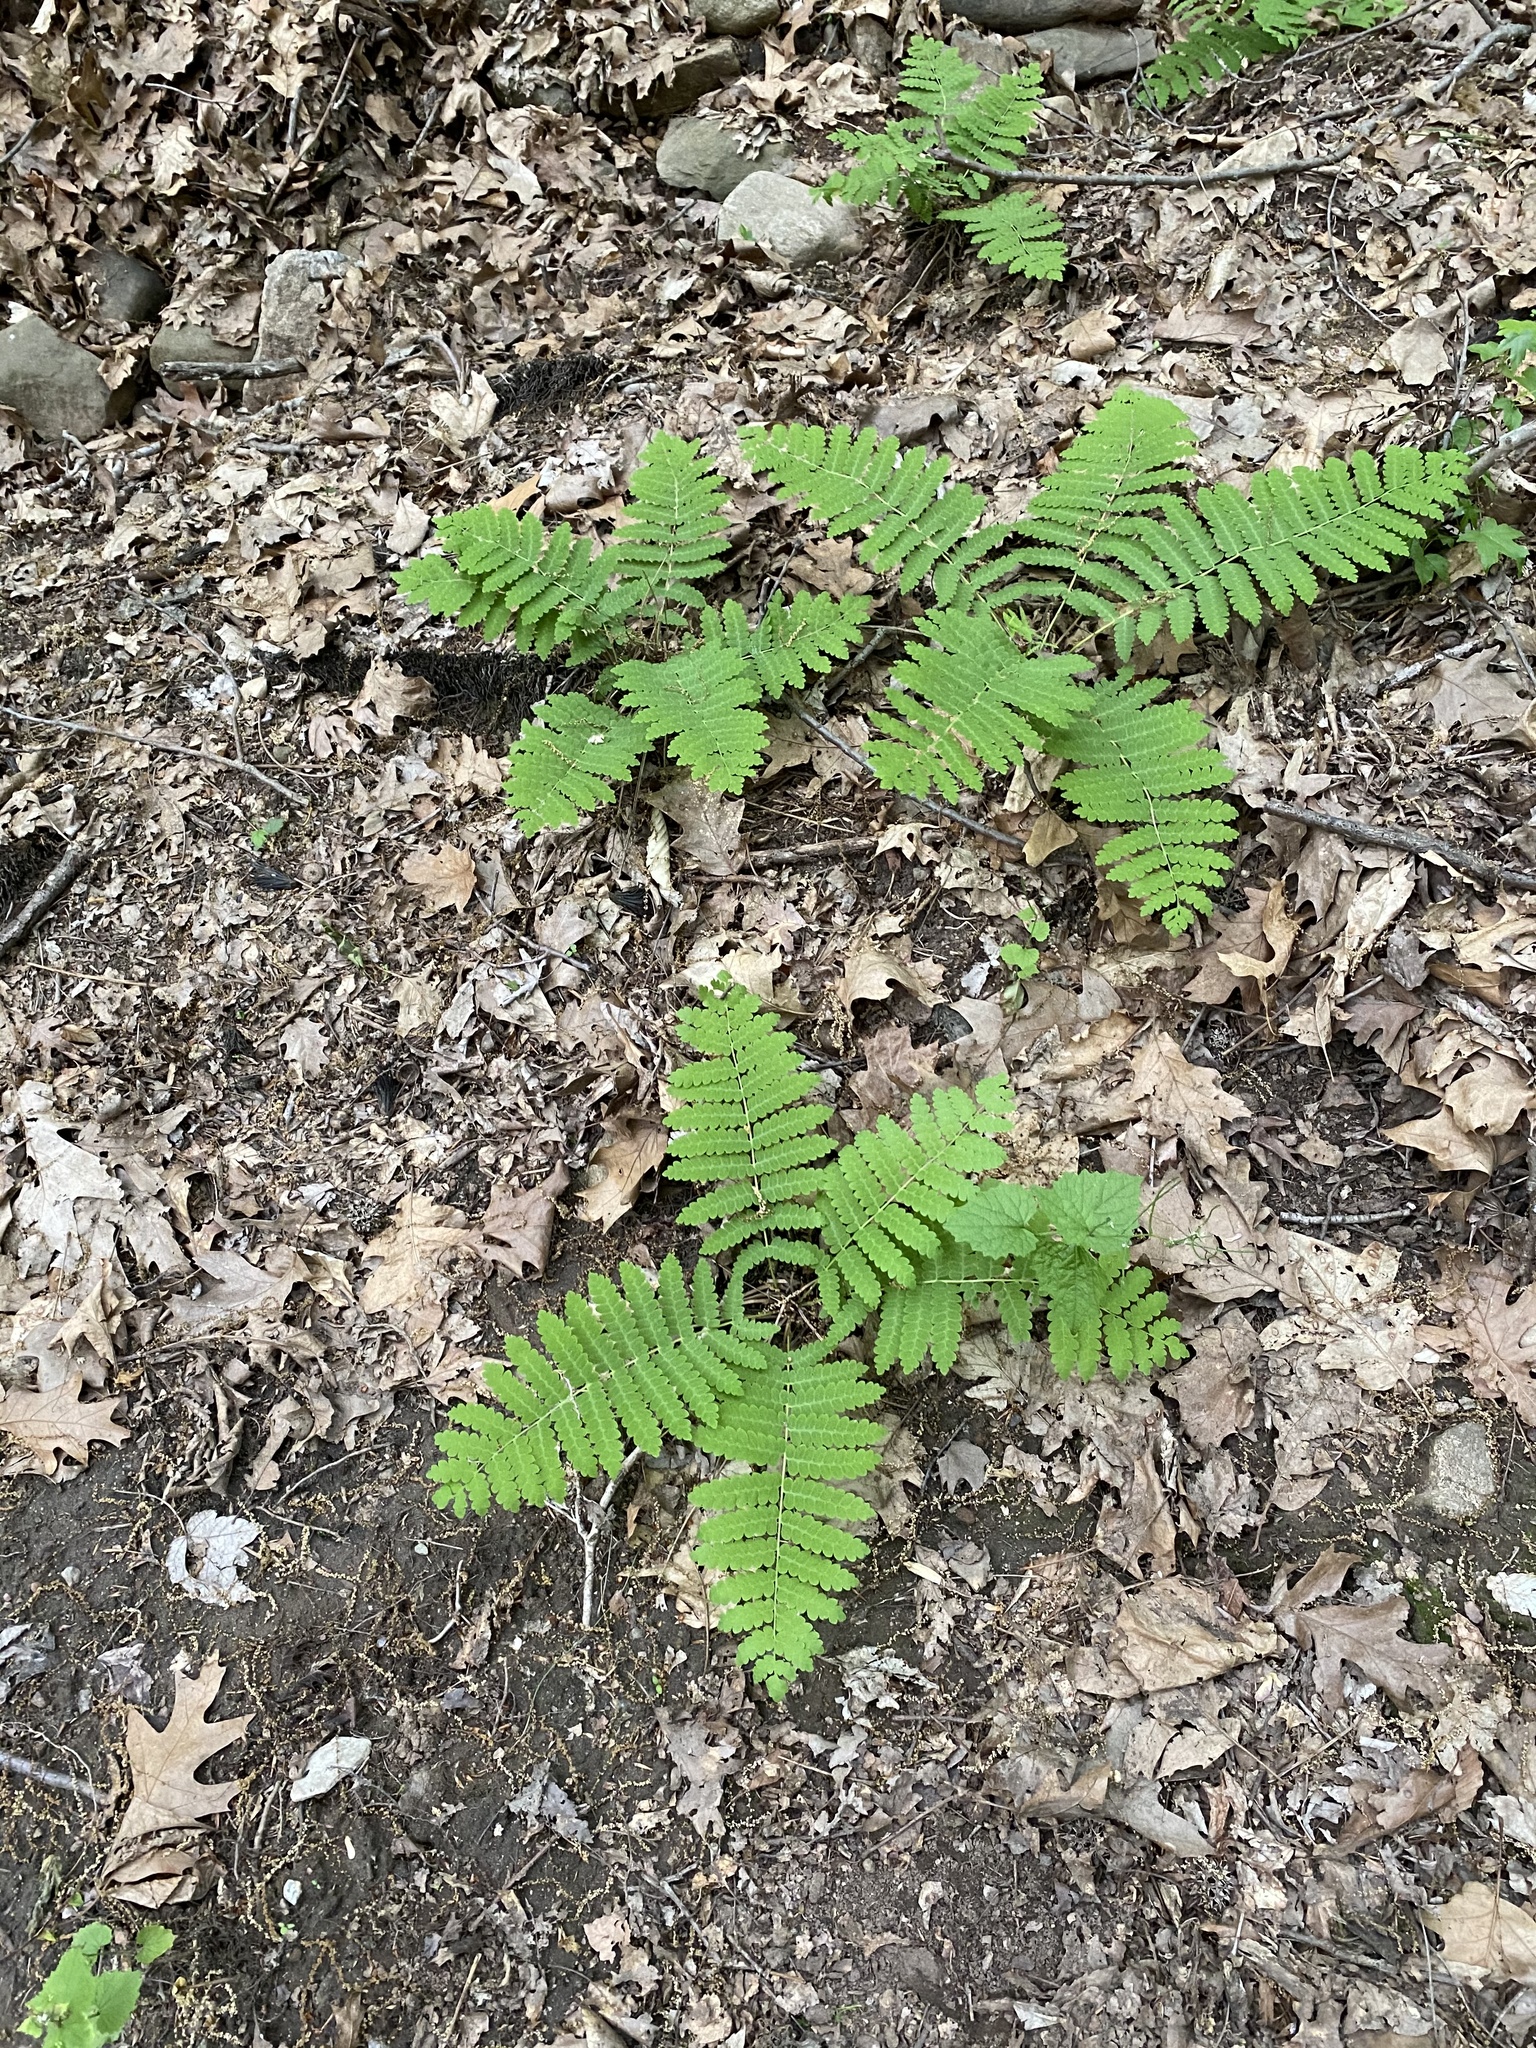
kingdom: Plantae
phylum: Tracheophyta
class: Polypodiopsida
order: Osmundales
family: Osmundaceae
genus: Claytosmunda
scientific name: Claytosmunda claytoniana
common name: Clayton's fern
